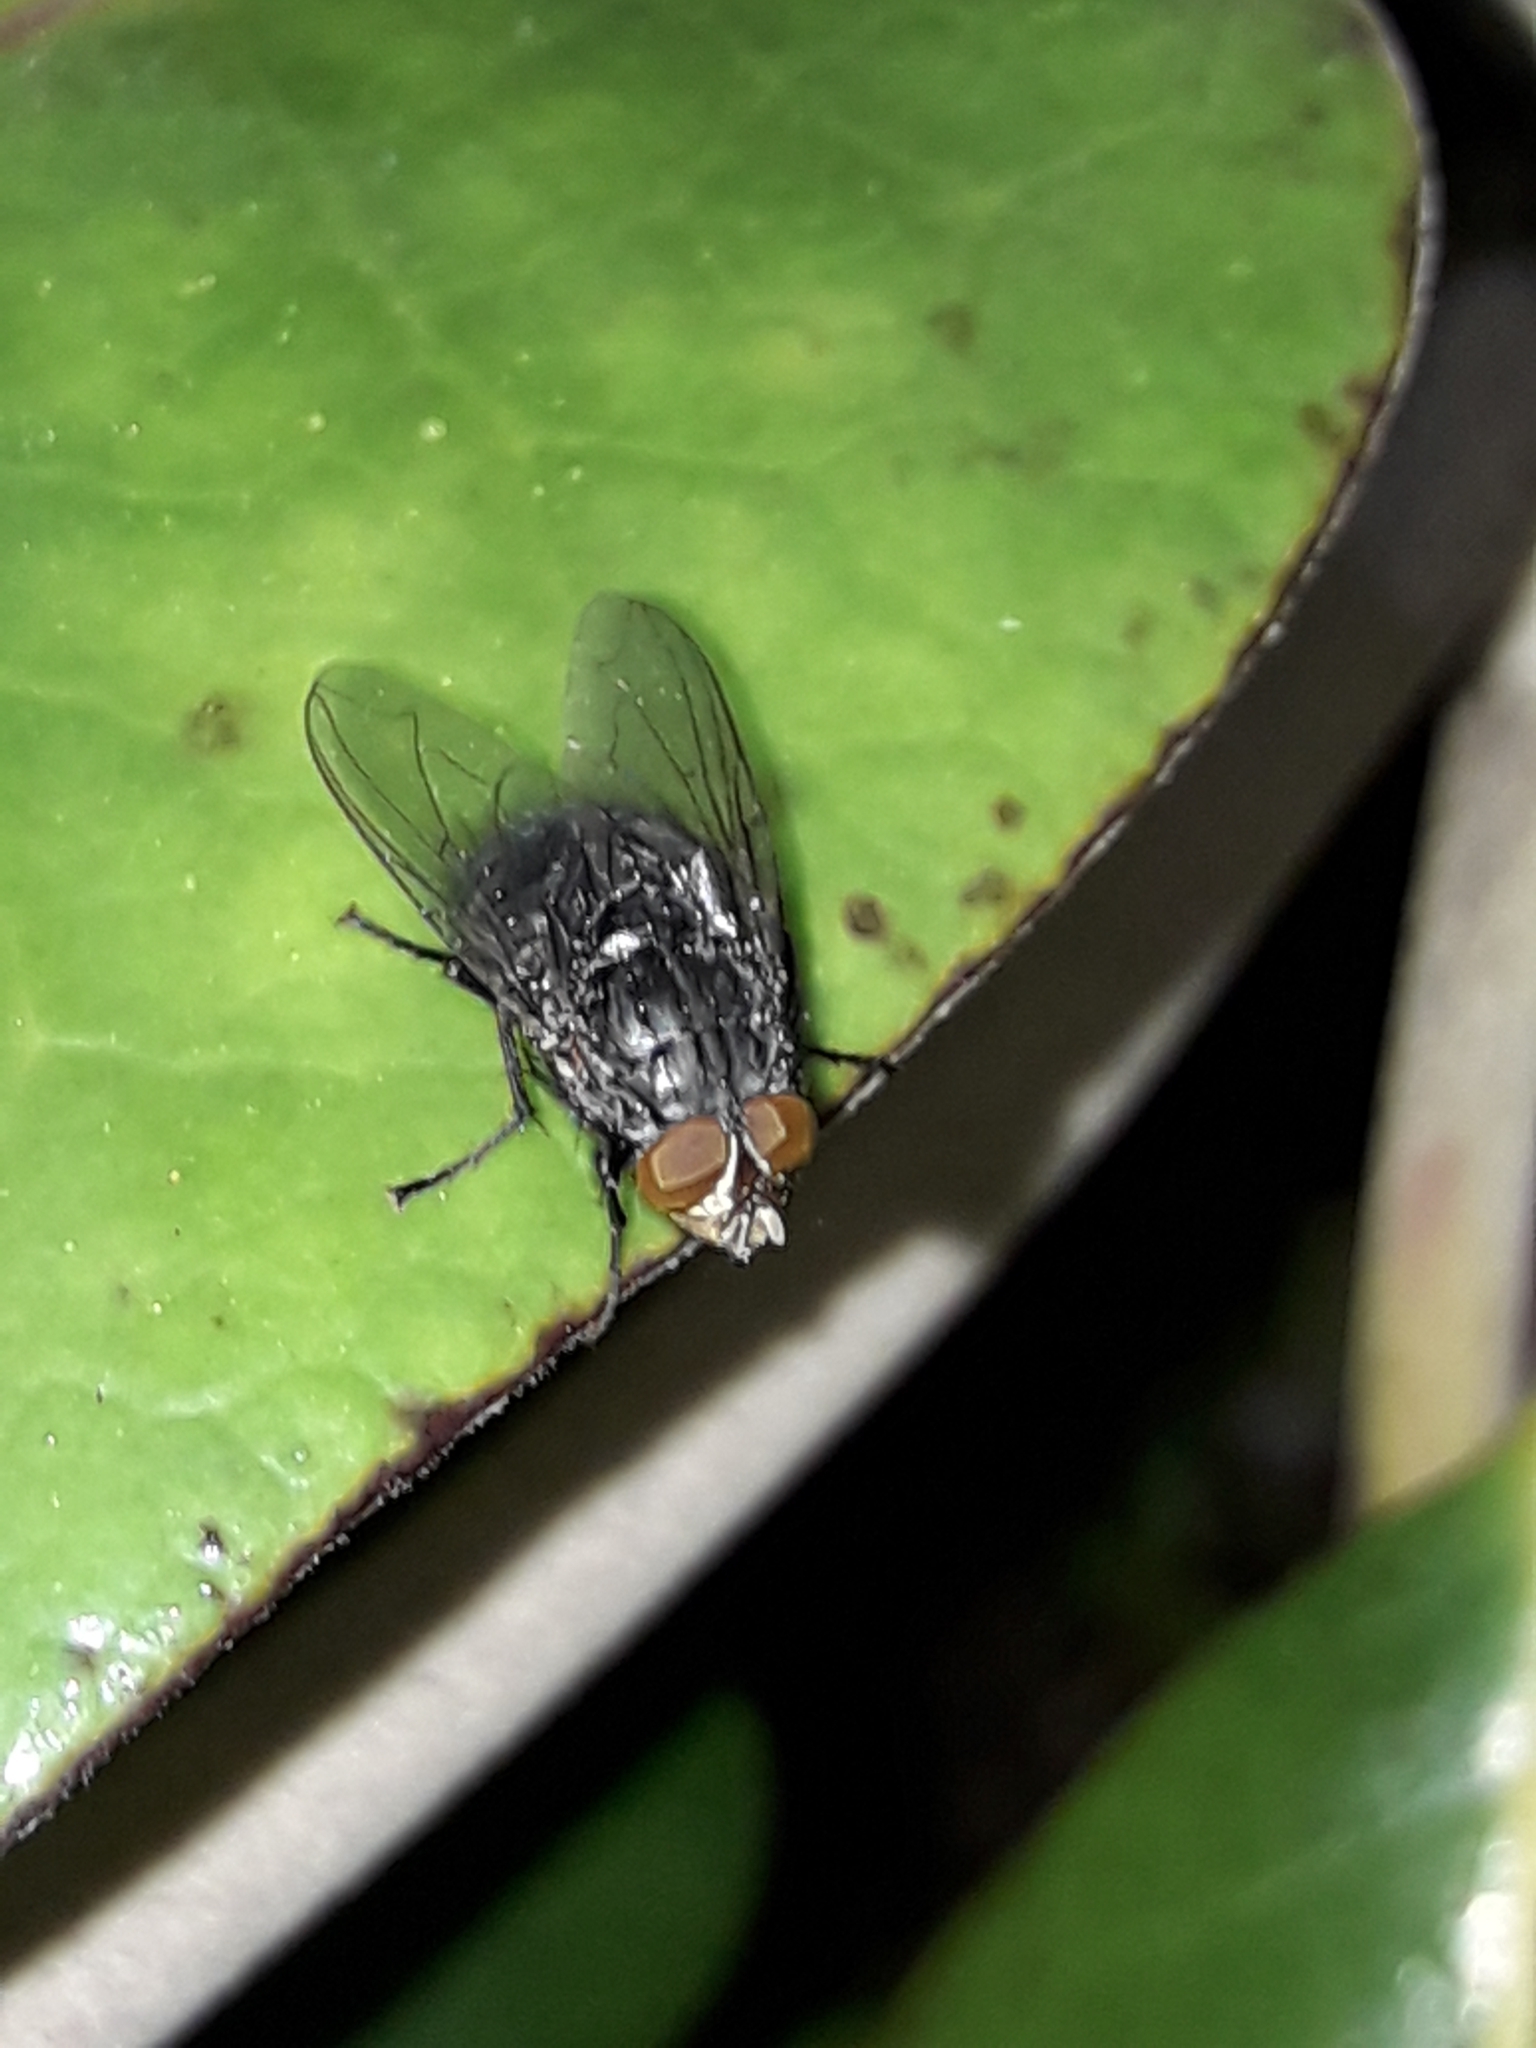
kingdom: Animalia
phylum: Arthropoda
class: Insecta
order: Diptera
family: Calliphoridae
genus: Calliphora
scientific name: Calliphora vicina
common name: Common blow flie
